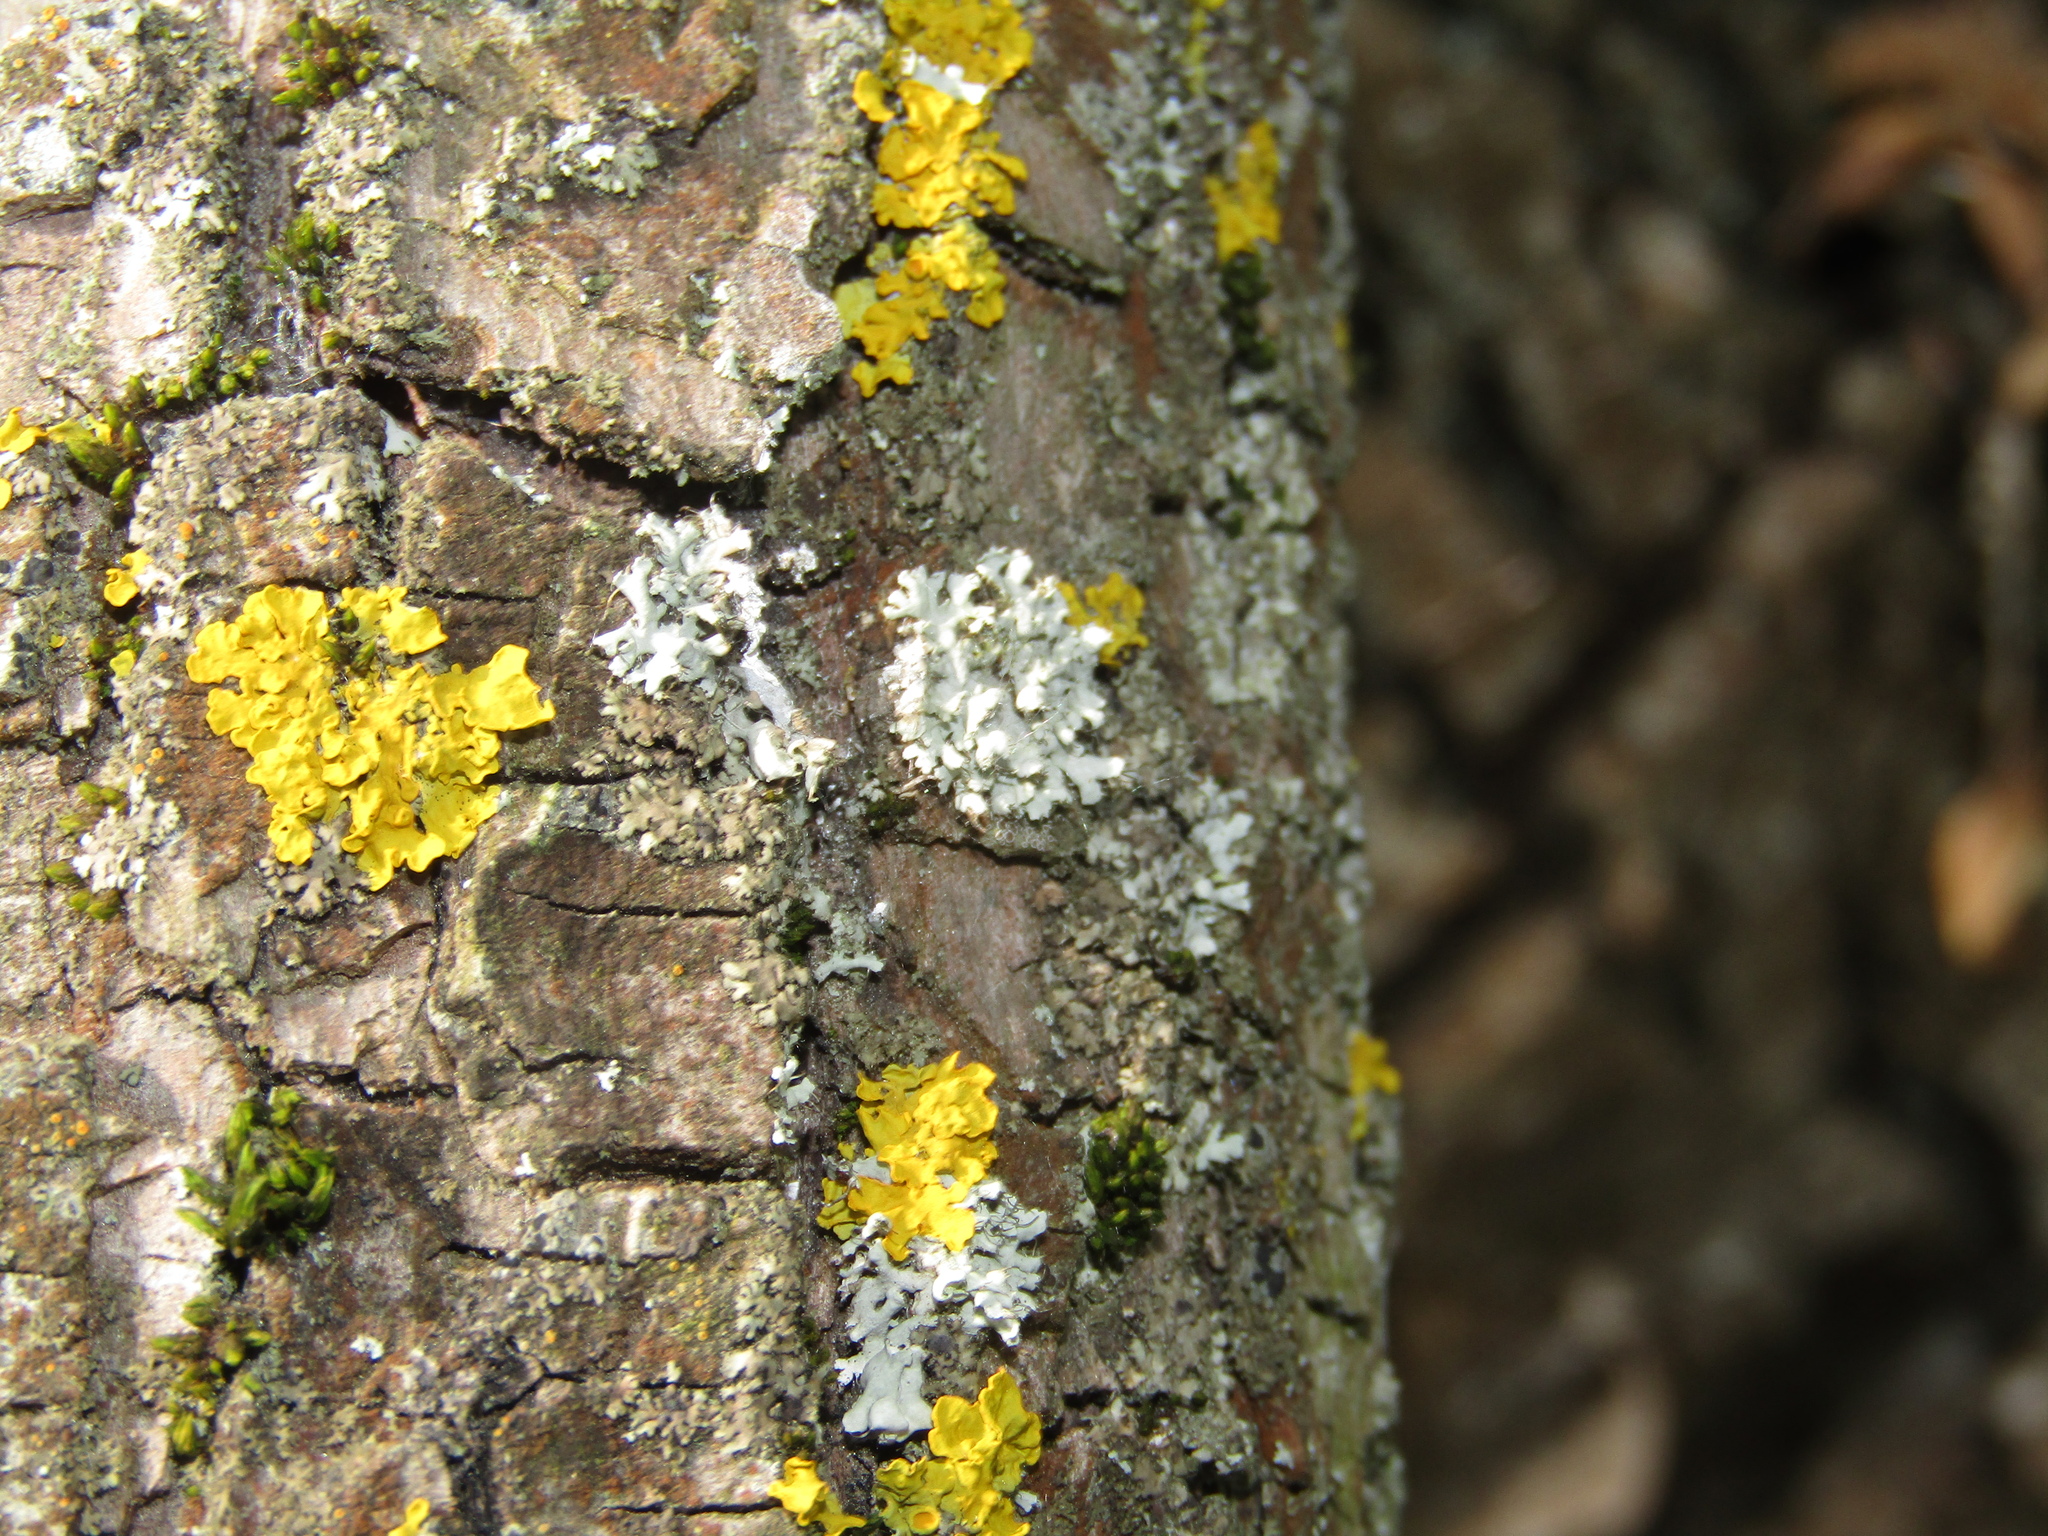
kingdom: Fungi
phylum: Ascomycota
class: Lecanoromycetes
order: Caliciales
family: Physciaceae
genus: Physcia
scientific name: Physcia adscendens
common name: Hooded rosette lichen
